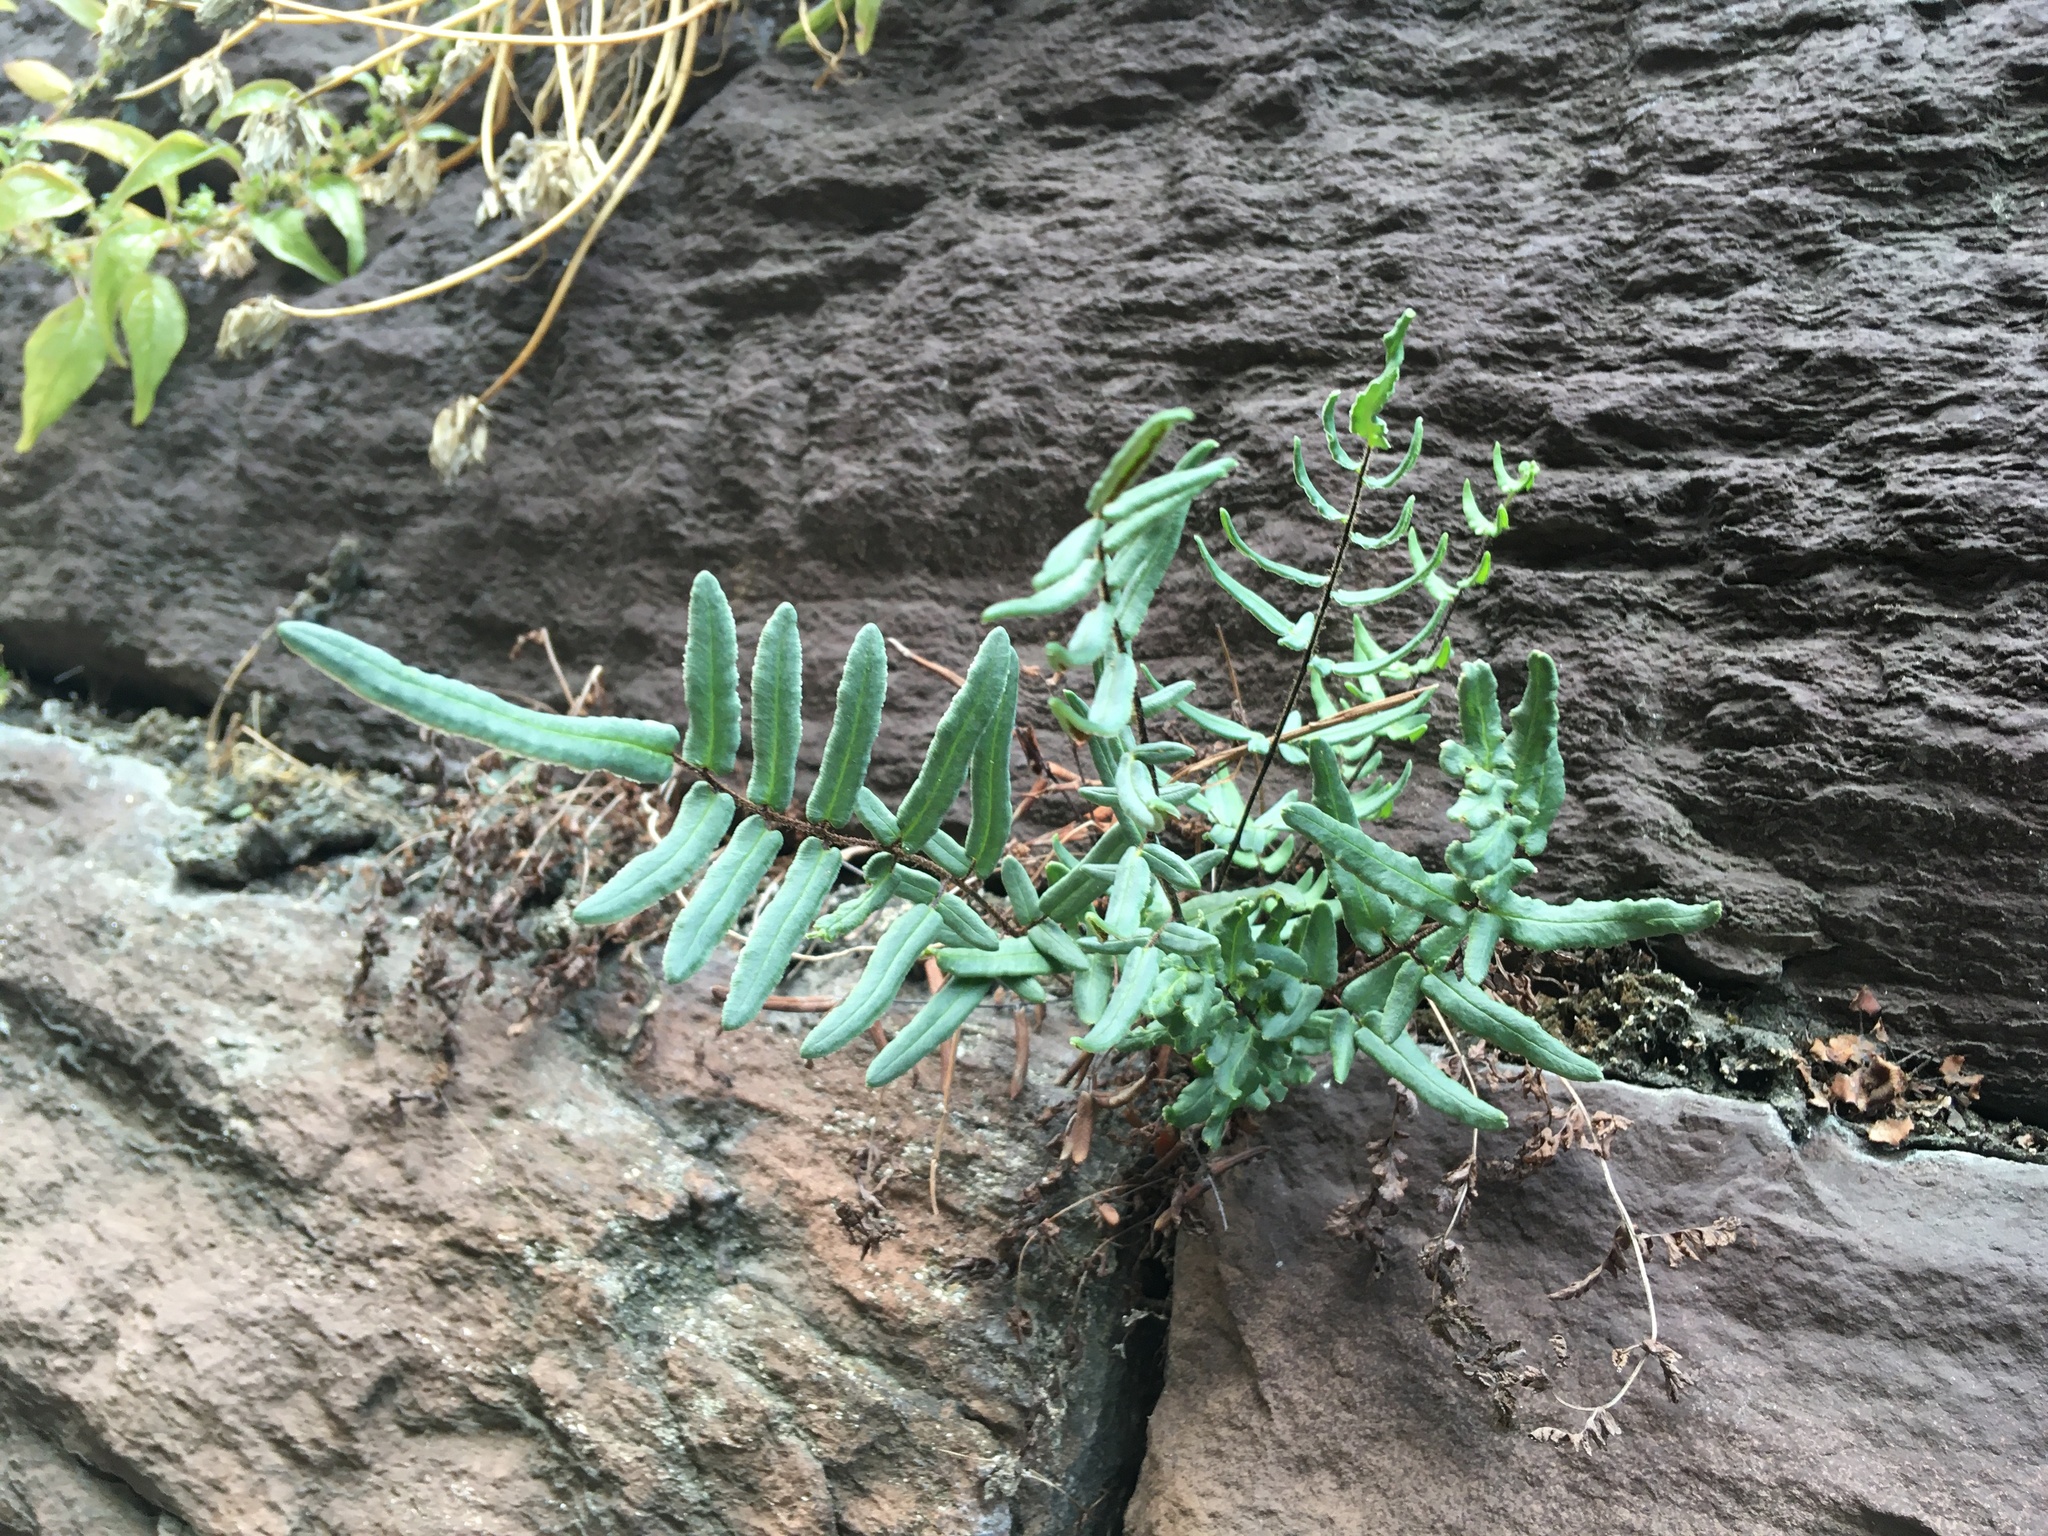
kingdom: Plantae
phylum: Tracheophyta
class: Polypodiopsida
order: Polypodiales
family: Pteridaceae
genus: Pellaea
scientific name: Pellaea atropurpurea
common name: Hairy cliffbrake
